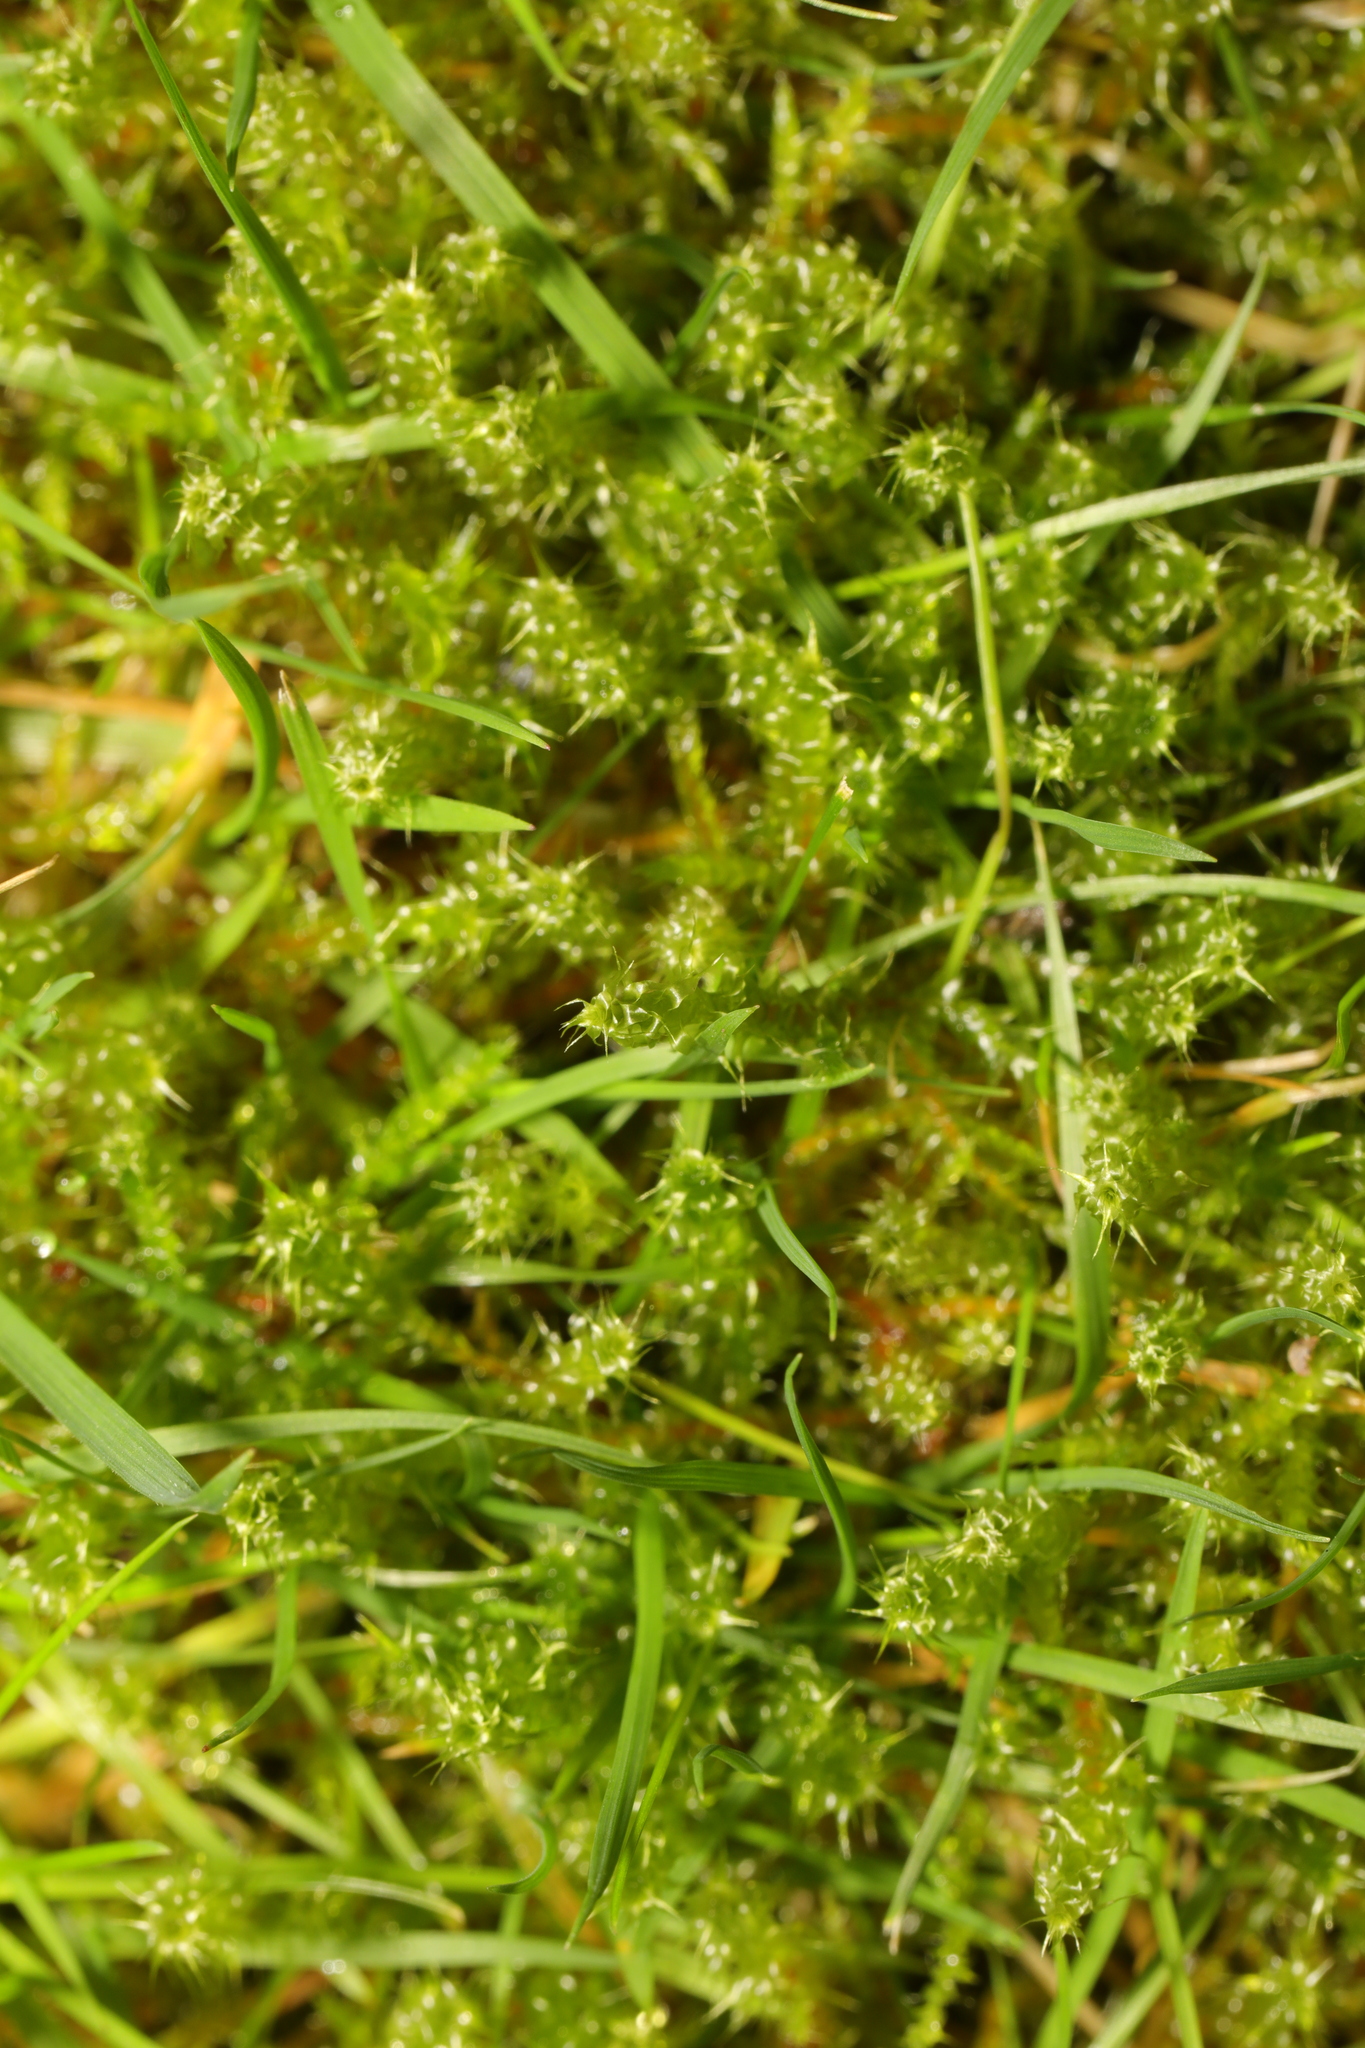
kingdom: Plantae
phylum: Bryophyta
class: Bryopsida
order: Hypnales
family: Hylocomiaceae
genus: Rhytidiadelphus
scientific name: Rhytidiadelphus squarrosus
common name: Springy turf-moss
